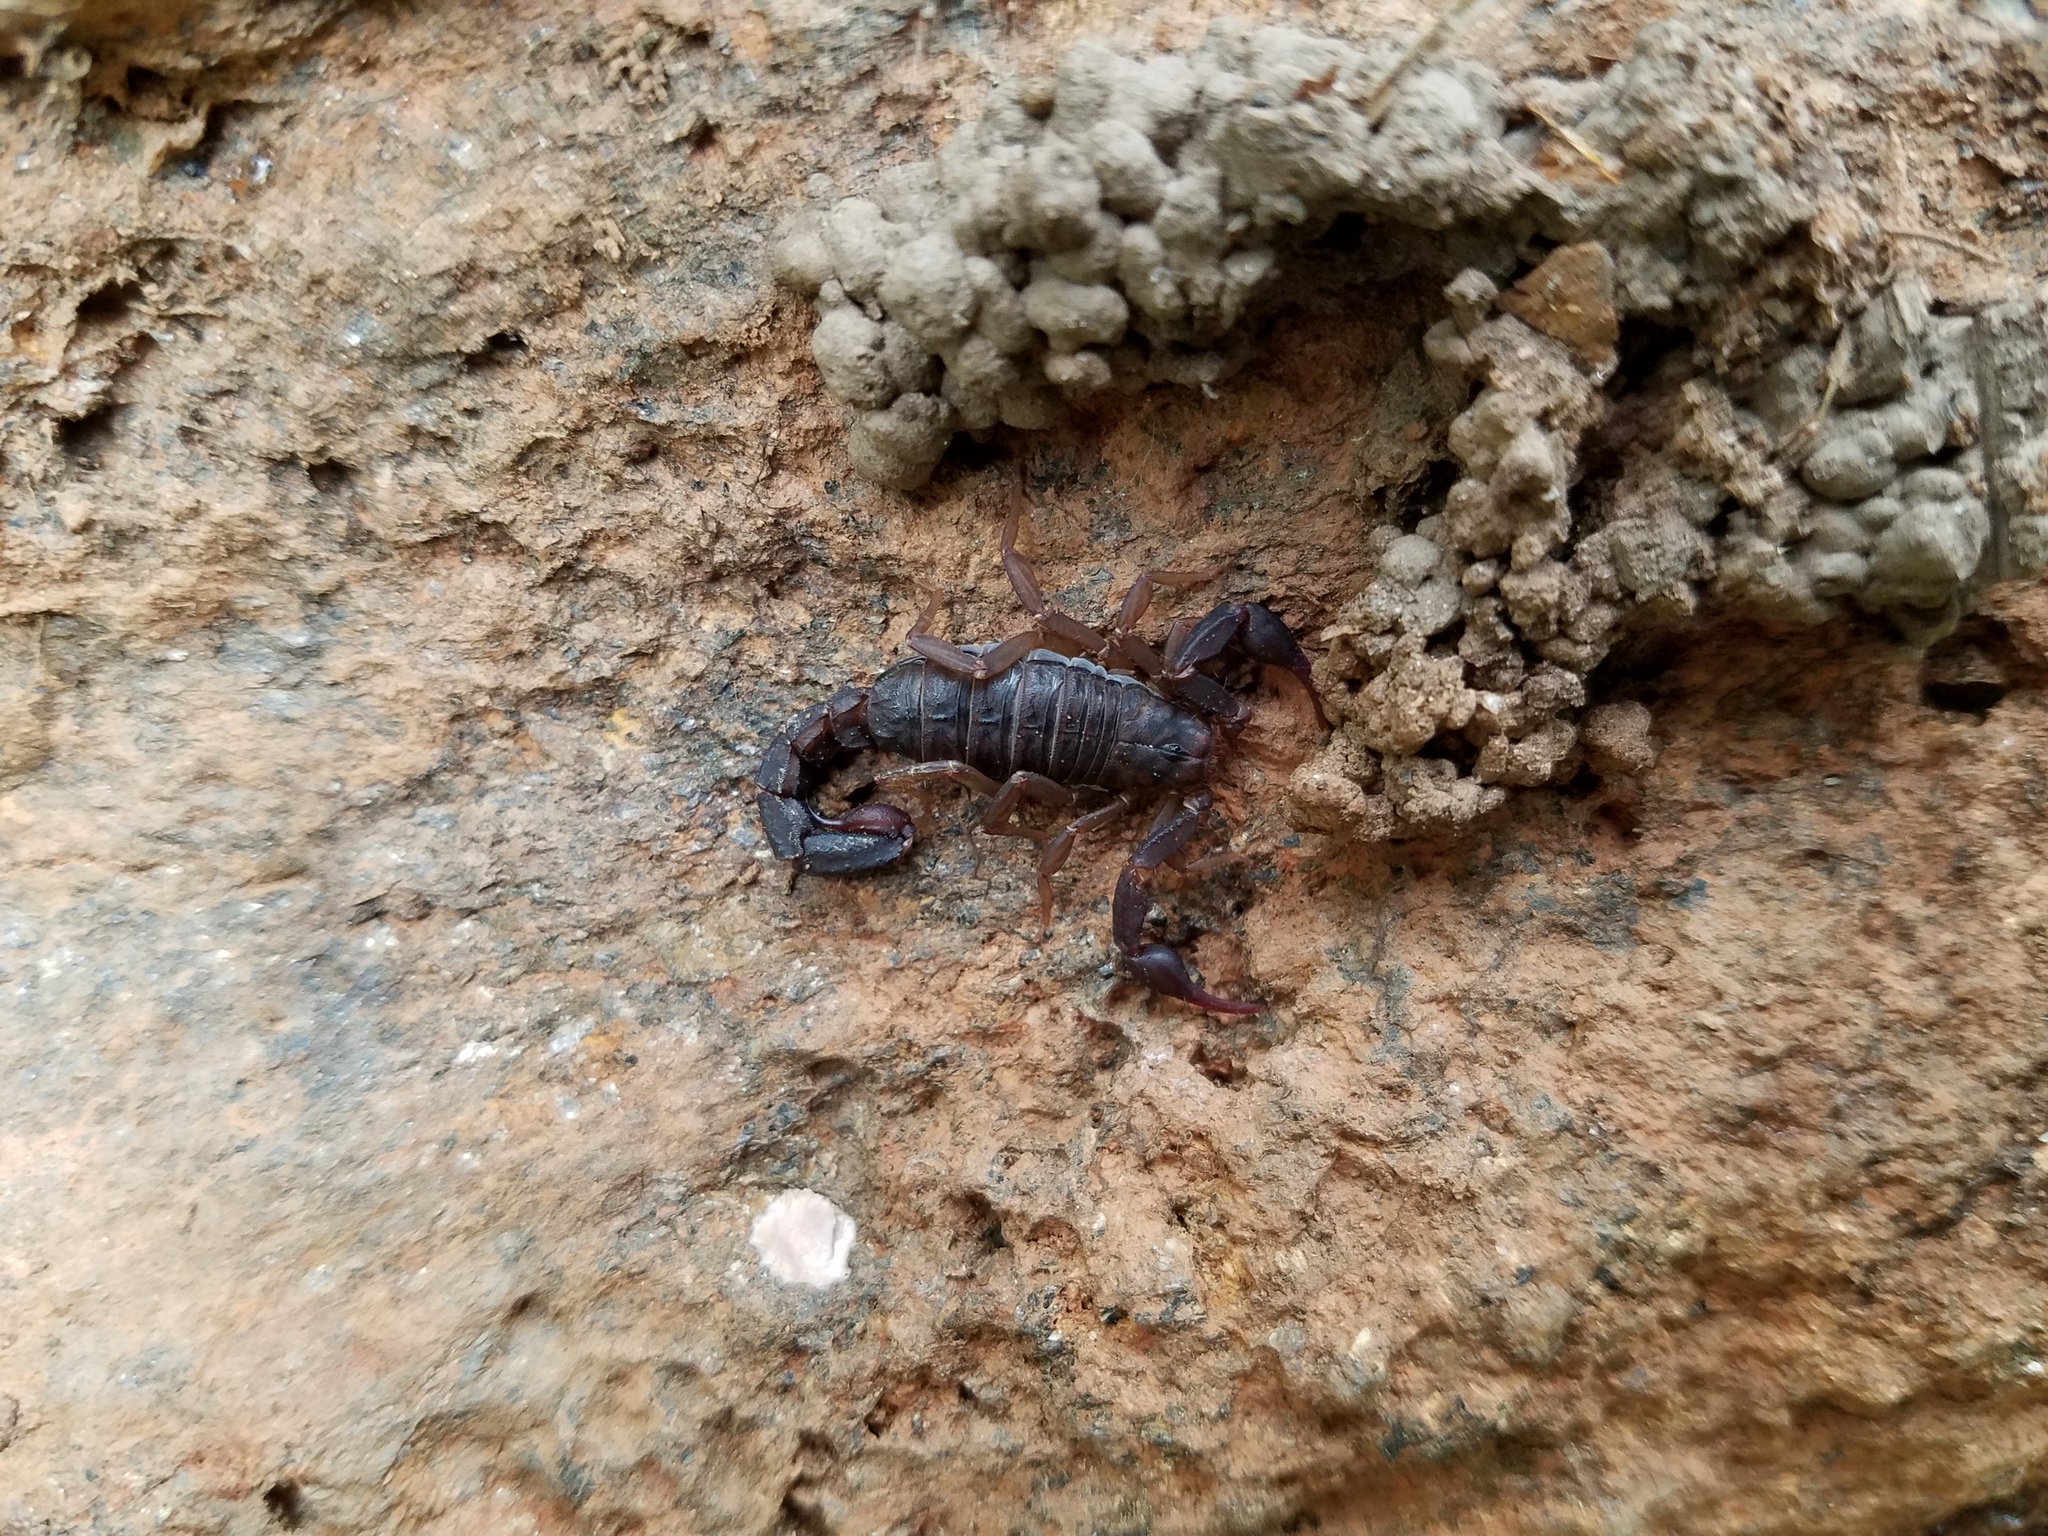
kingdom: Animalia
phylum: Arthropoda
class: Arachnida
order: Scorpiones
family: Vaejovidae
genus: Vaejovis
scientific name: Vaejovis carolinianus
